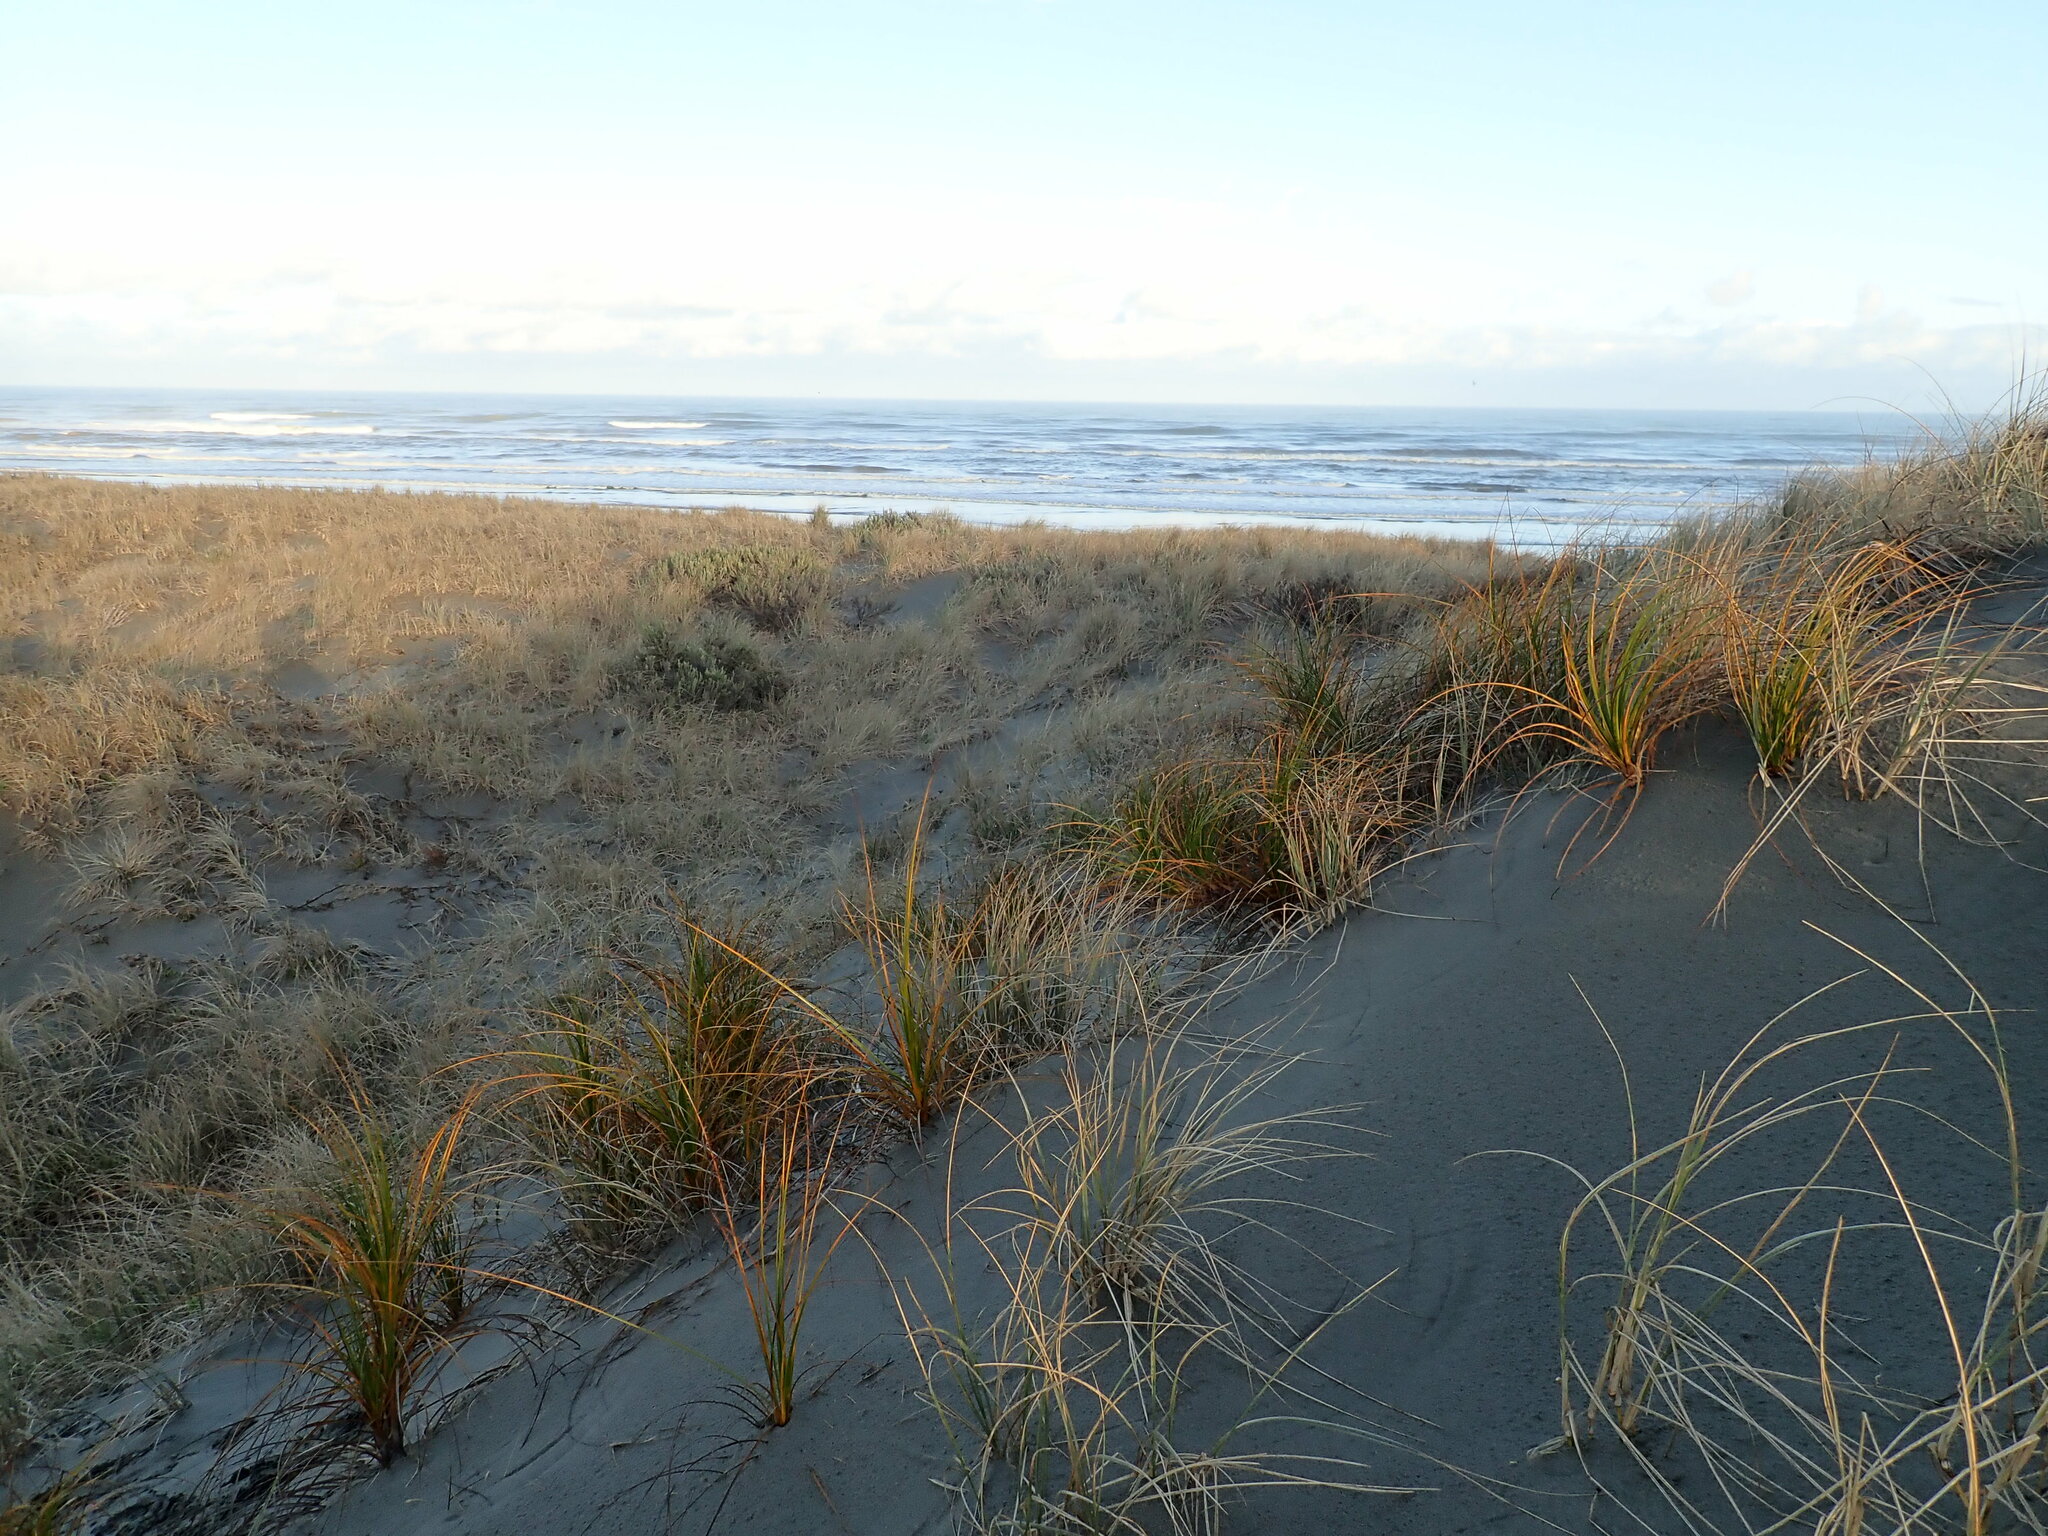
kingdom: Plantae
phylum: Tracheophyta
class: Liliopsida
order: Poales
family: Cyperaceae
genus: Ficinia
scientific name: Ficinia spiralis
